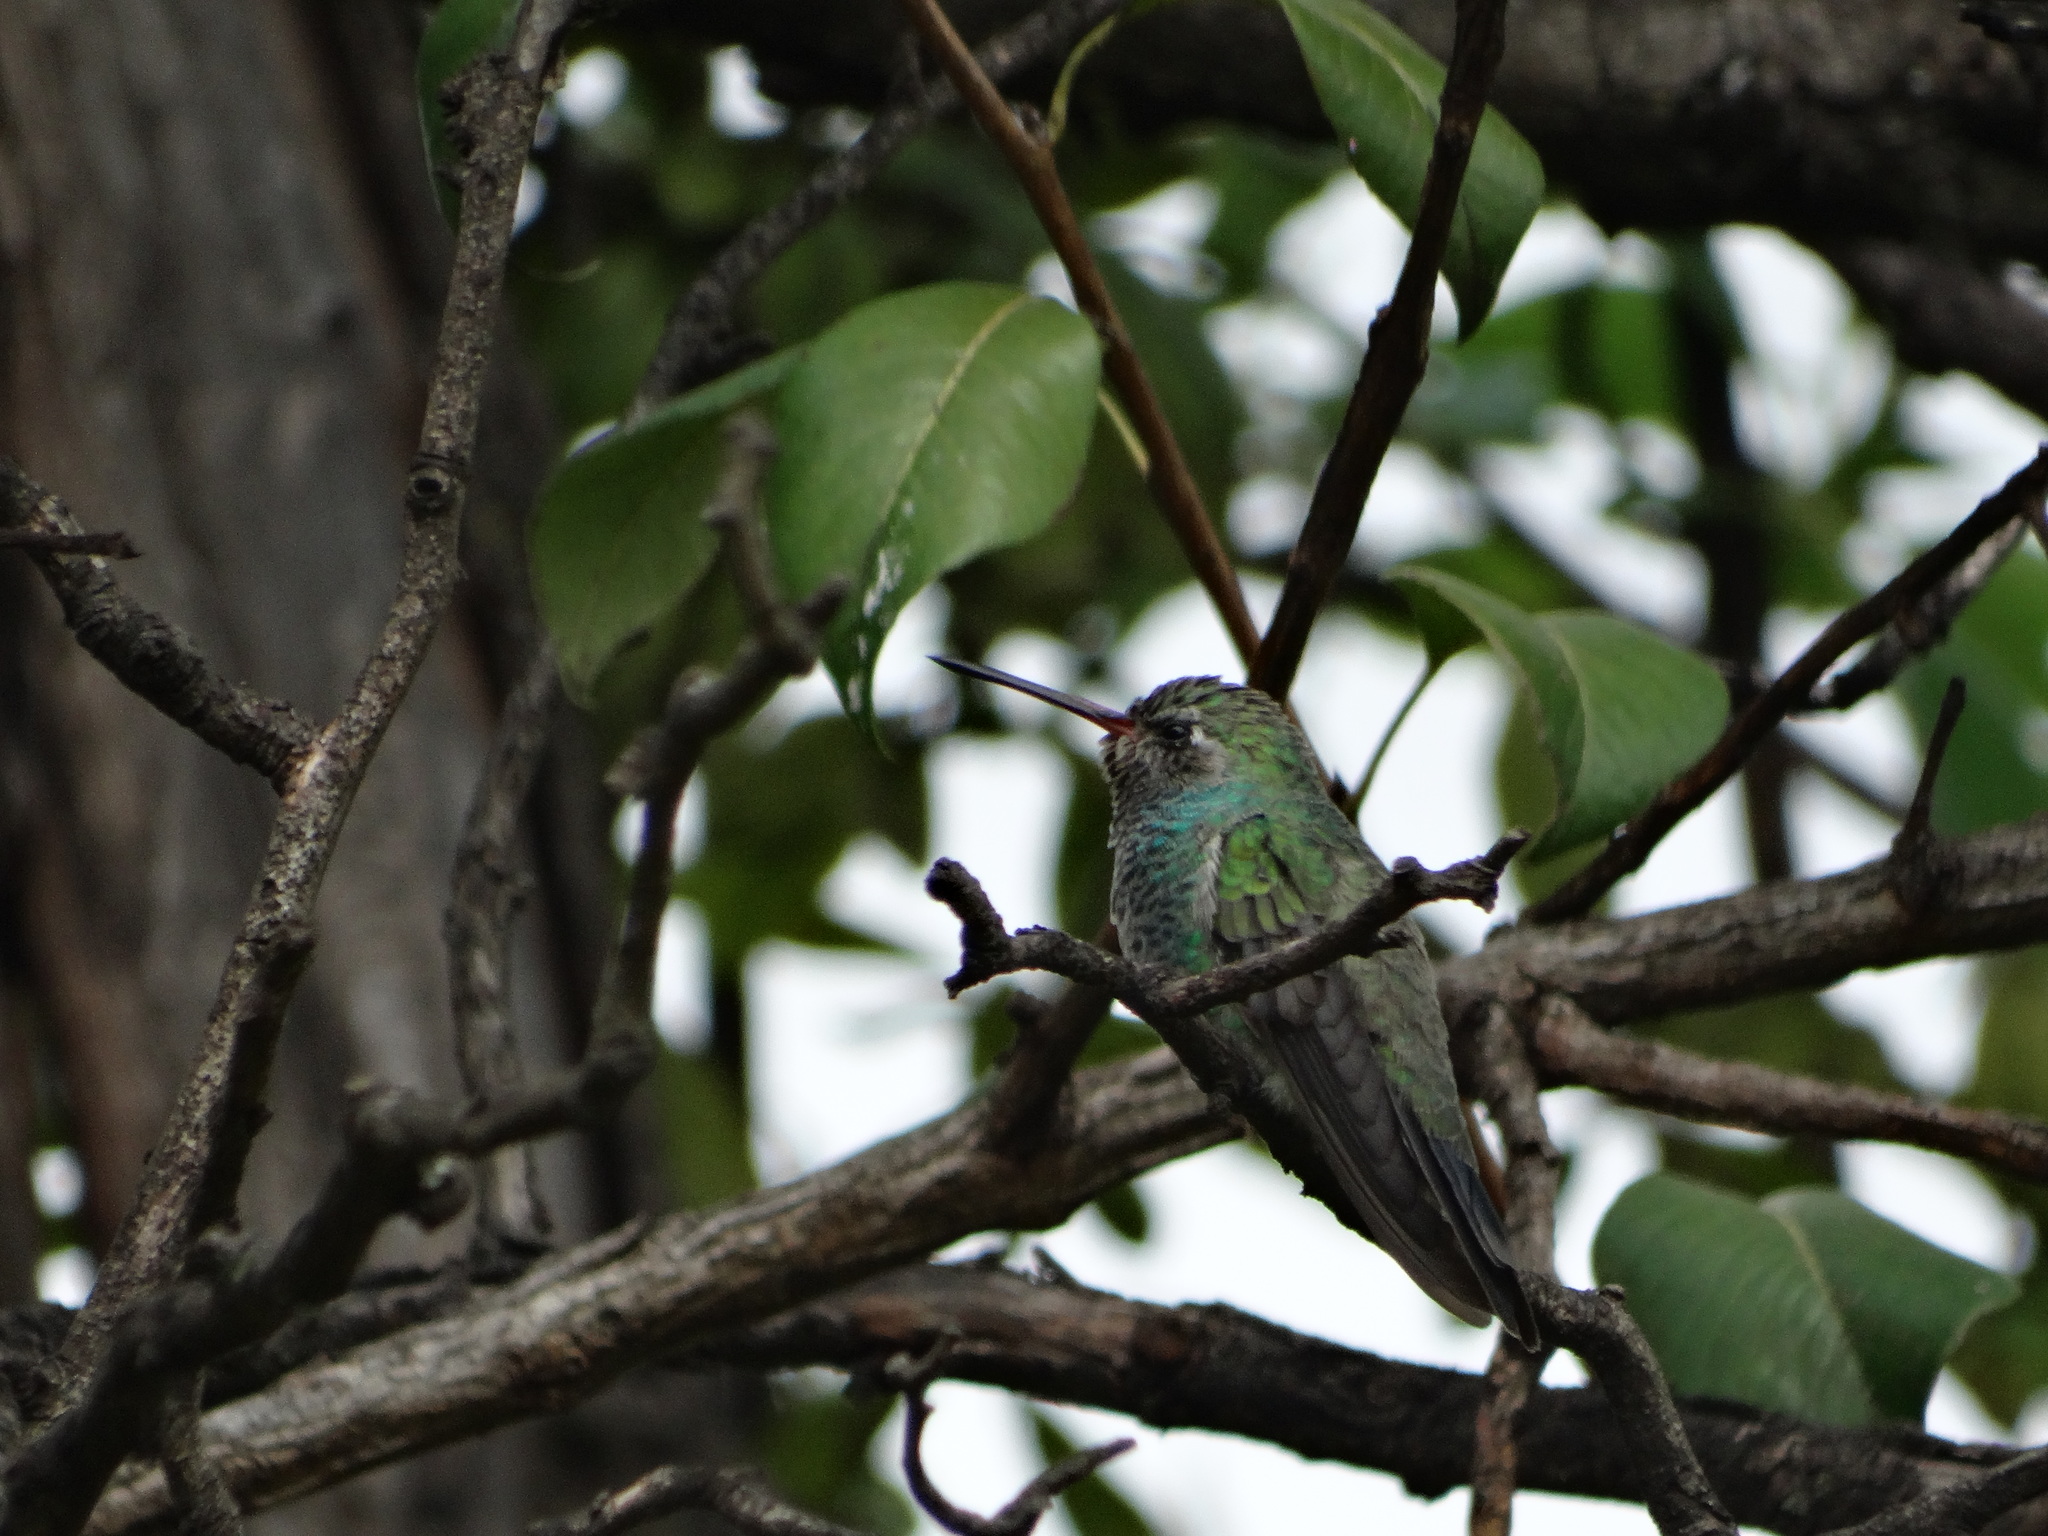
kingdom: Animalia
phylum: Chordata
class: Aves
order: Apodiformes
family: Trochilidae
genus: Cynanthus
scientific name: Cynanthus latirostris
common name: Broad-billed hummingbird
